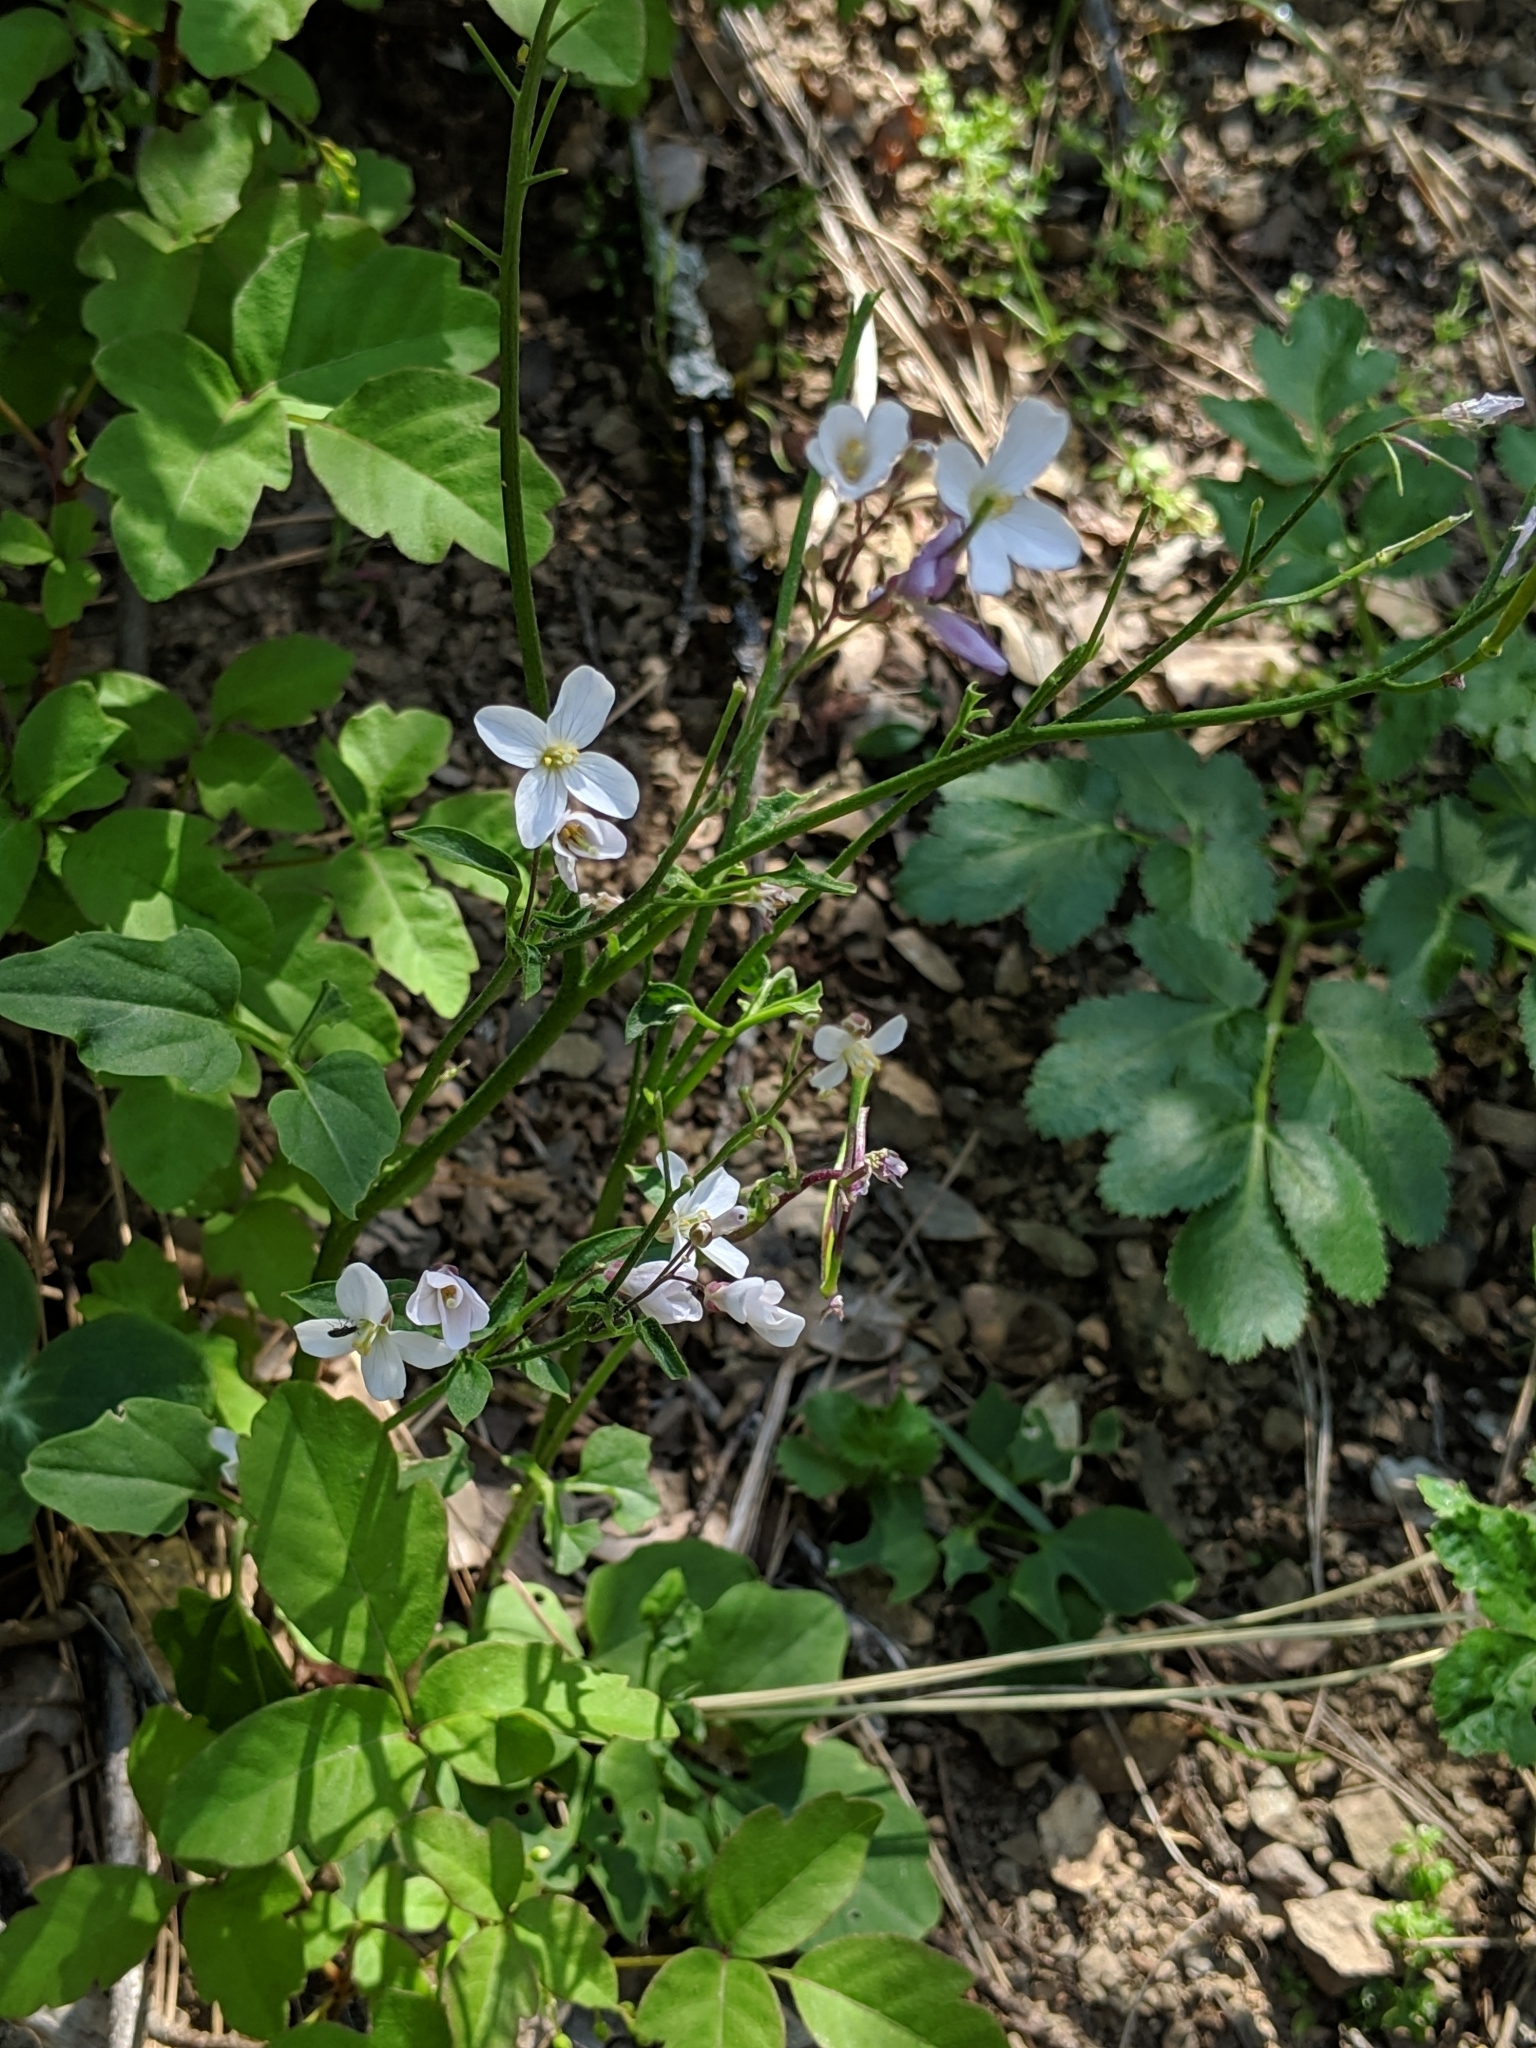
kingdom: Plantae
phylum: Tracheophyta
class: Magnoliopsida
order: Brassicales
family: Brassicaceae
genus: Cardamine
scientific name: Cardamine californica
